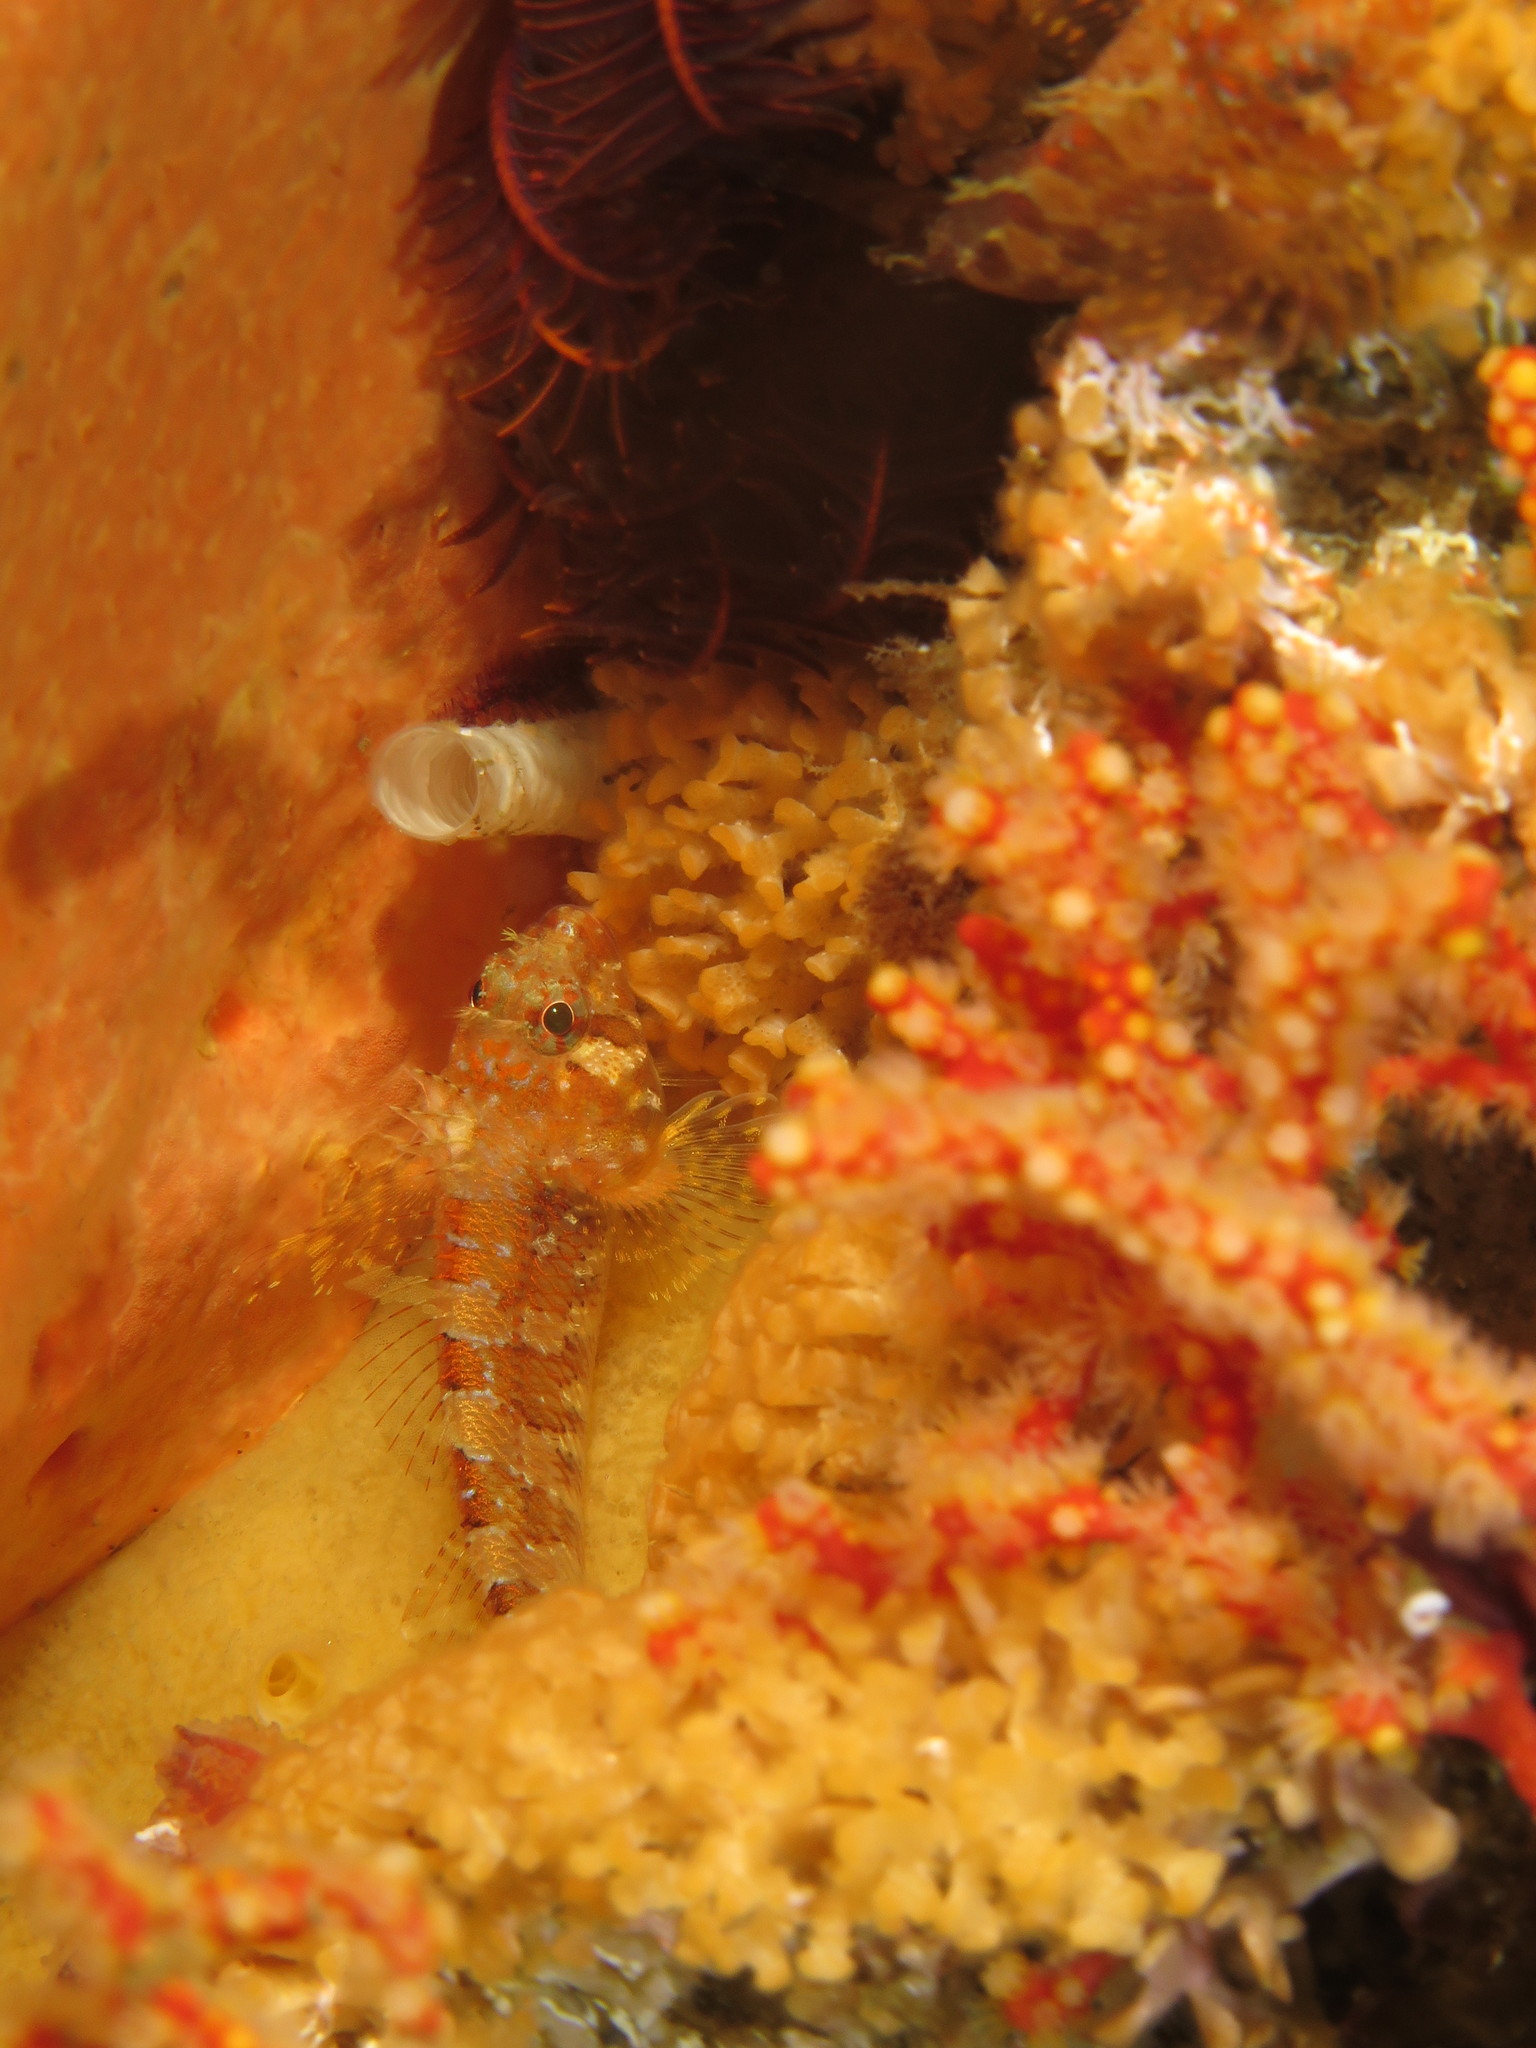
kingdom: Animalia
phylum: Chordata
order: Perciformes
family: Tripterygiidae
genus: Cremnochorites
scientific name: Cremnochorites capensis
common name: Cape triplefin
